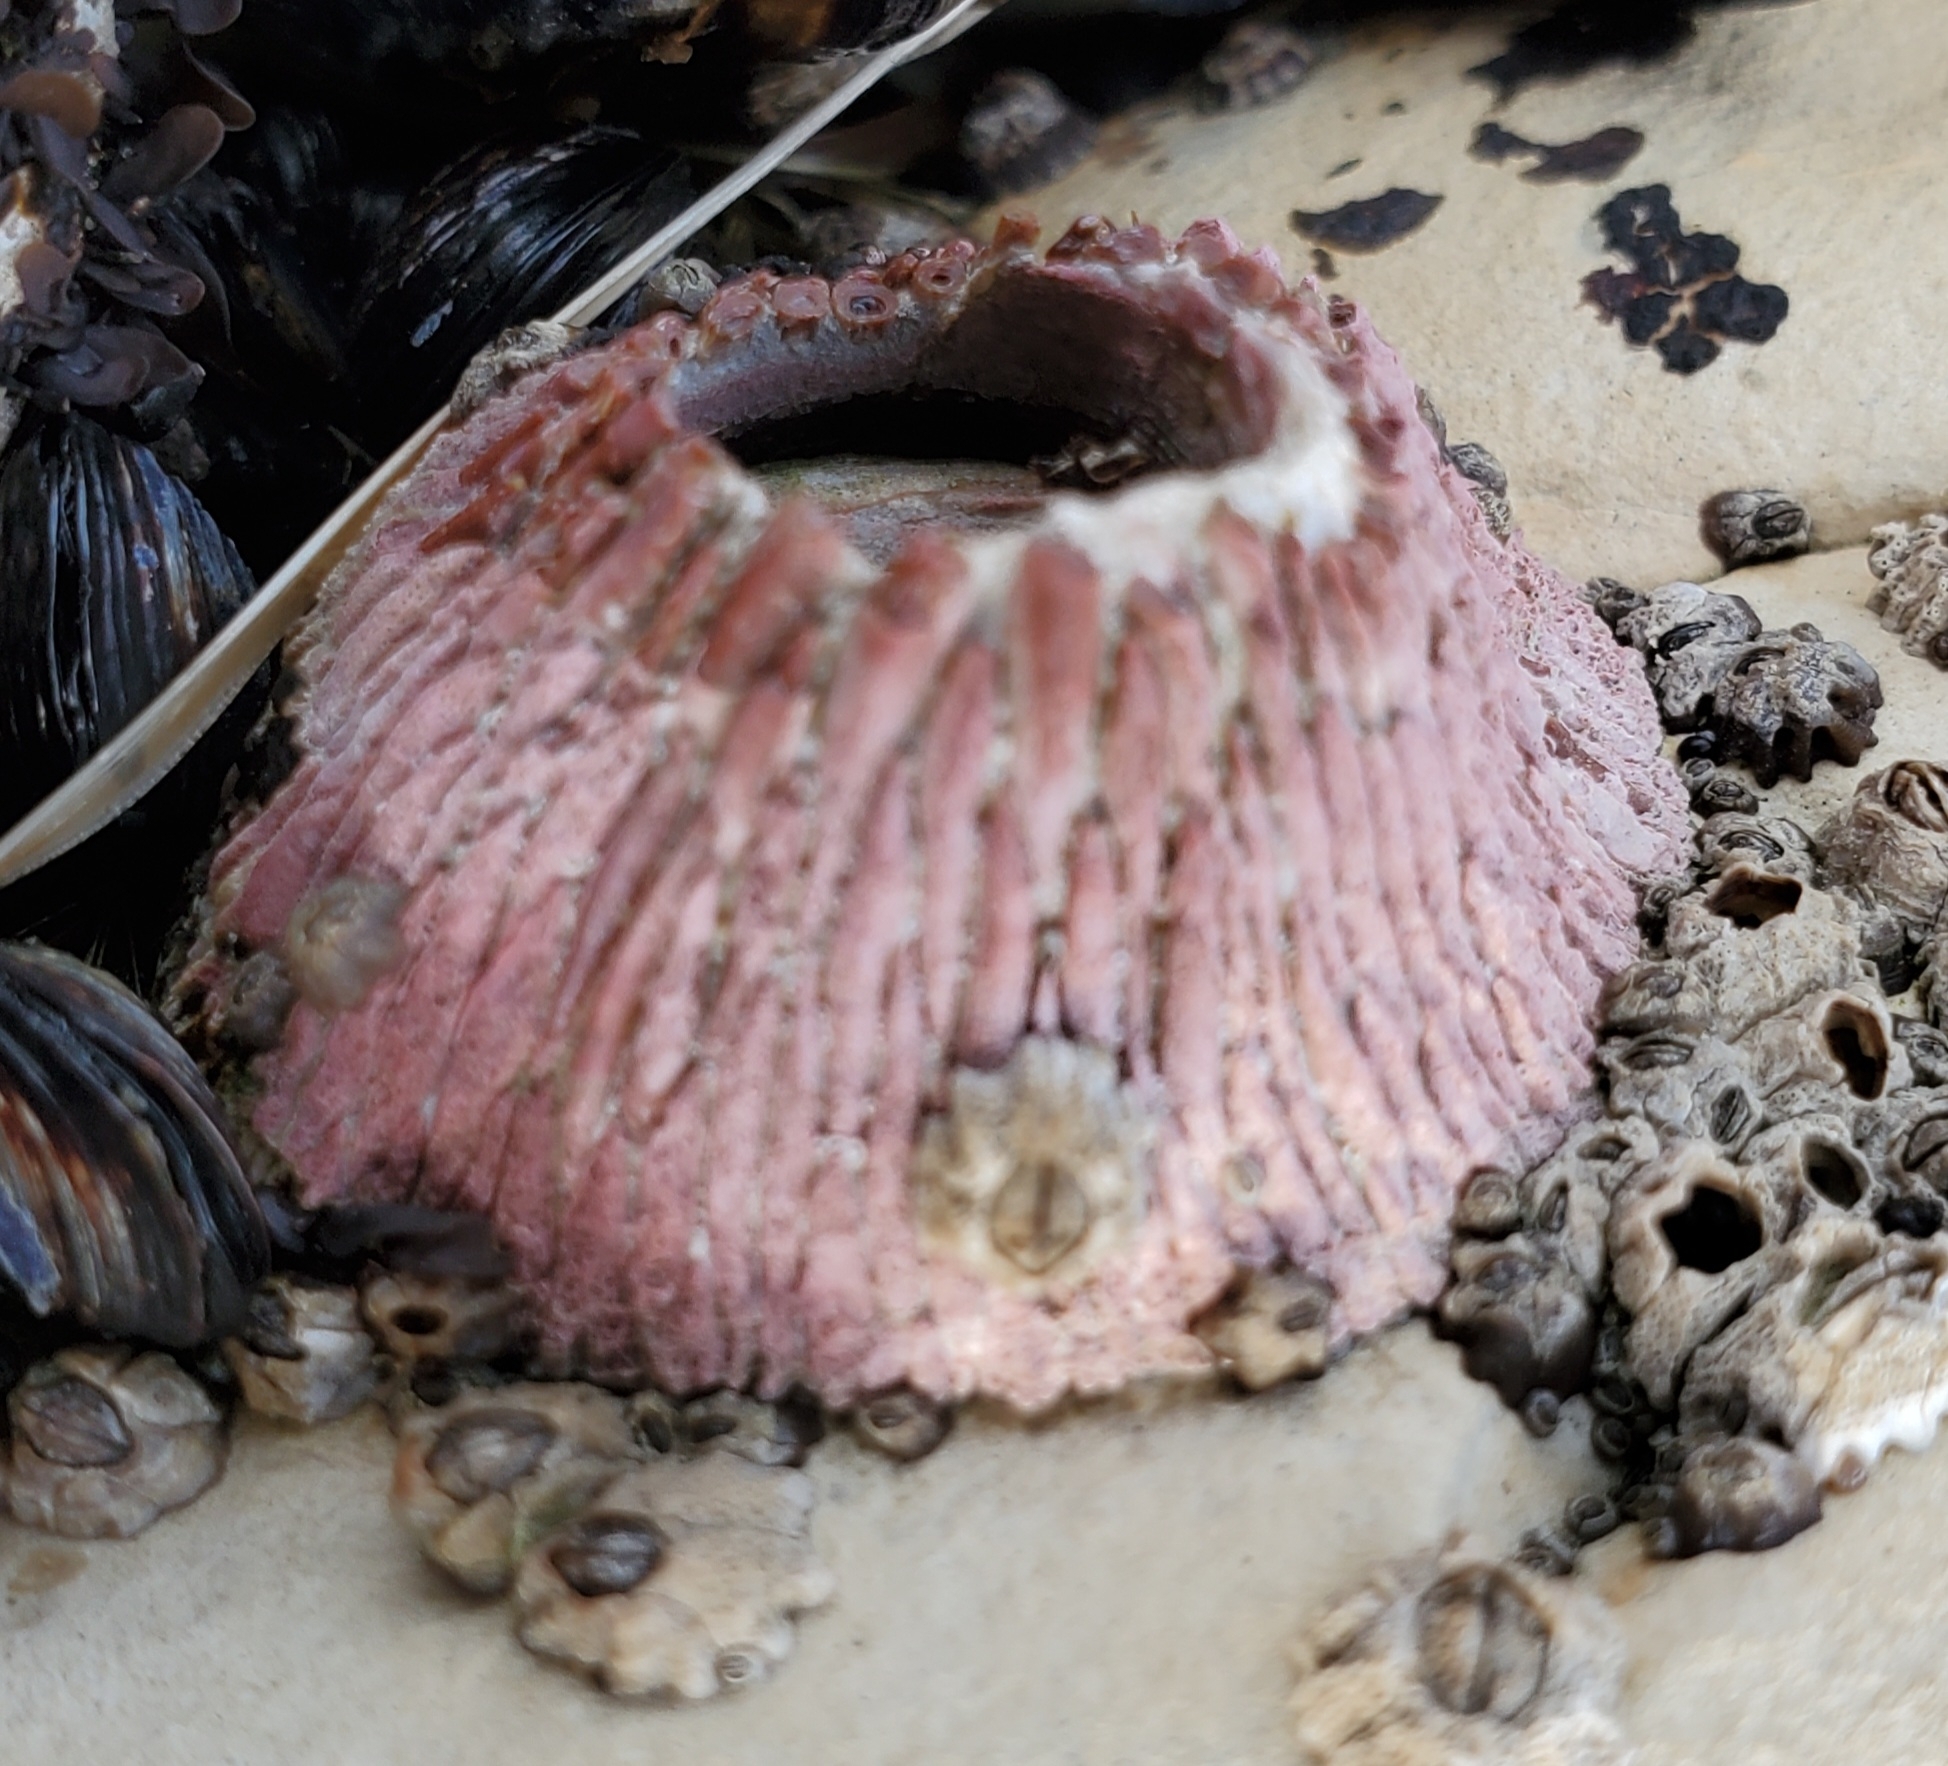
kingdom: Animalia
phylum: Arthropoda
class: Maxillopoda
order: Sessilia
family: Tetraclitidae
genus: Tetraclita
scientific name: Tetraclita rubescens
